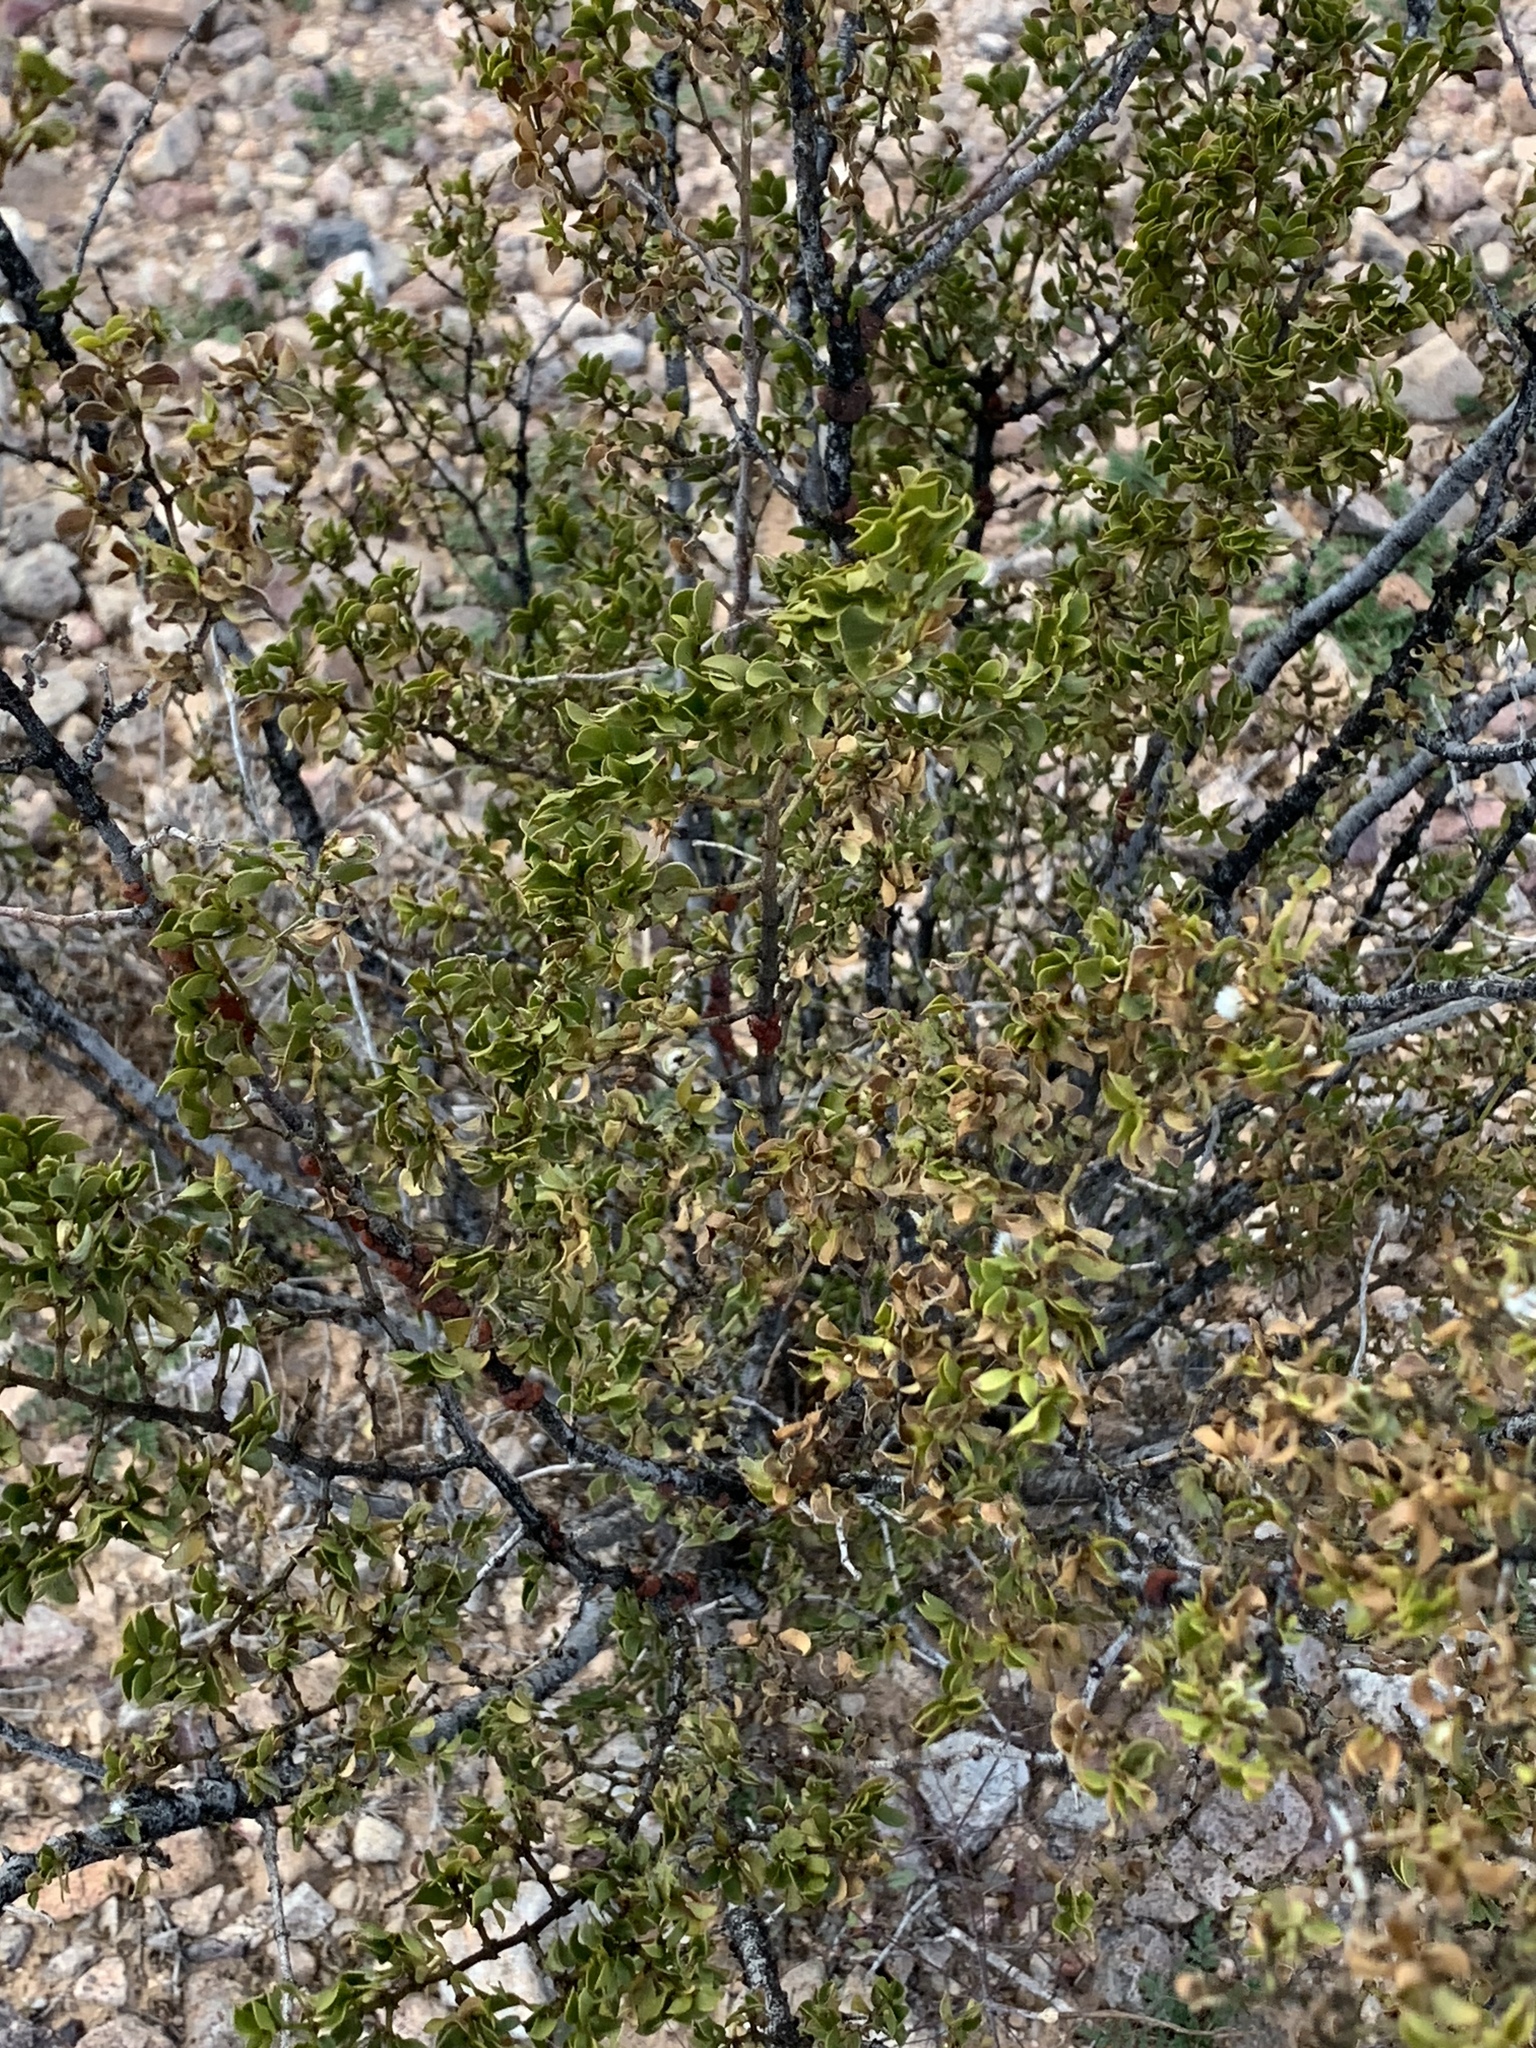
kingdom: Plantae
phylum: Tracheophyta
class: Magnoliopsida
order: Zygophyllales
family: Zygophyllaceae
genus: Larrea
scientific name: Larrea tridentata
